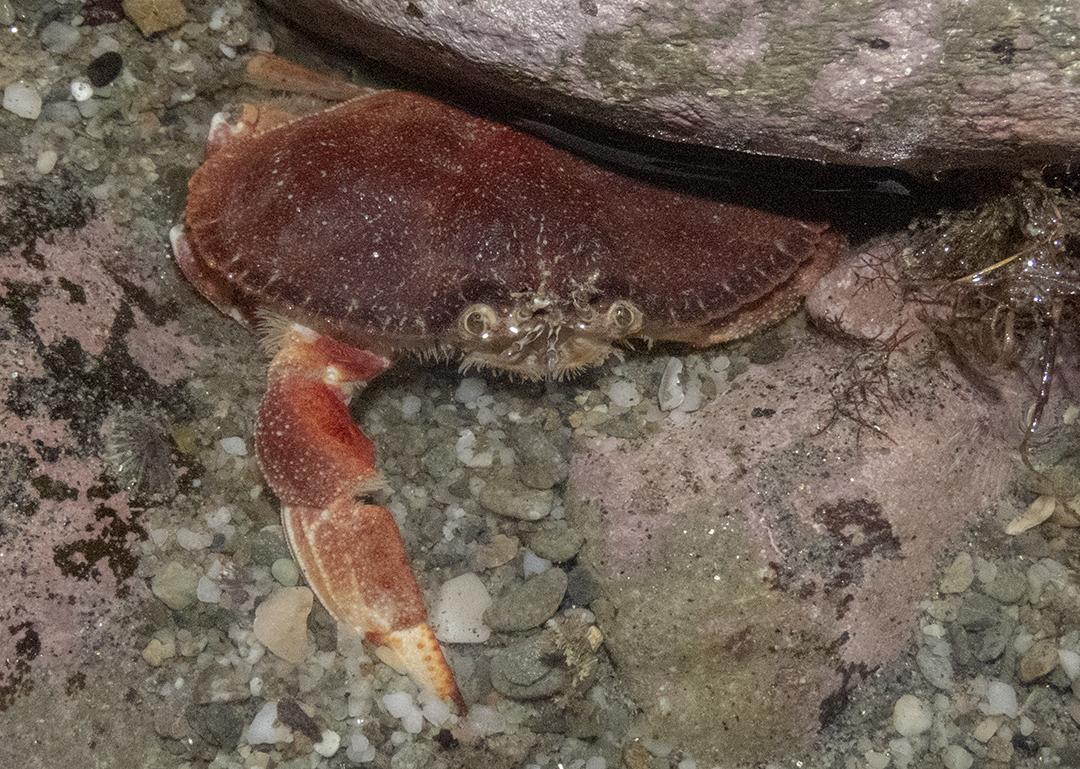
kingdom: Animalia
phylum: Arthropoda
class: Malacostraca
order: Decapoda
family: Cancridae
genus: Metacarcinus
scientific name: Metacarcinus novaezelandiae
